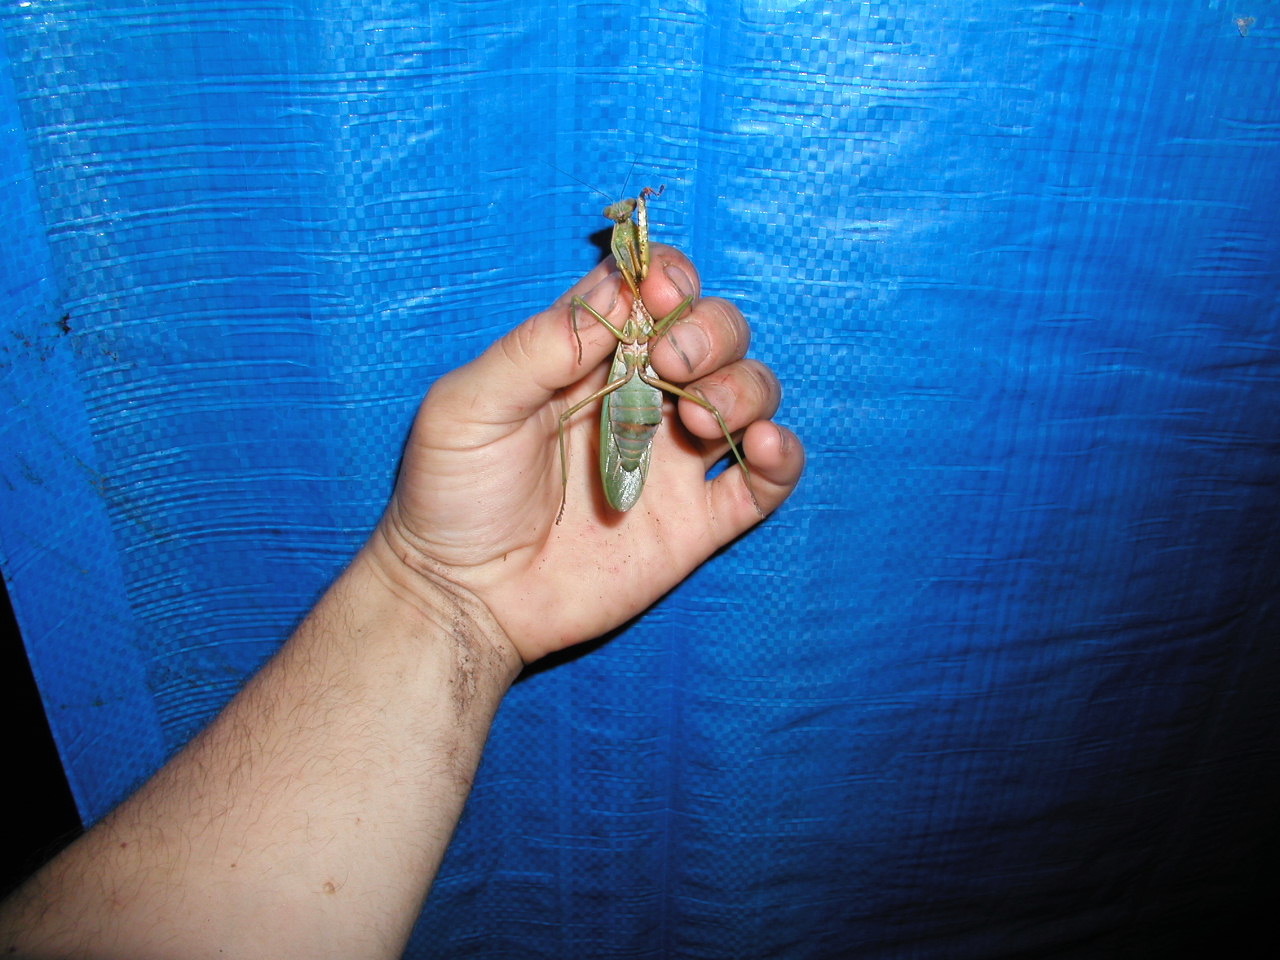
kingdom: Animalia
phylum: Arthropoda
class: Insecta
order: Mantodea
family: Mantidae
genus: Rhombodera
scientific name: Rhombodera morokana
